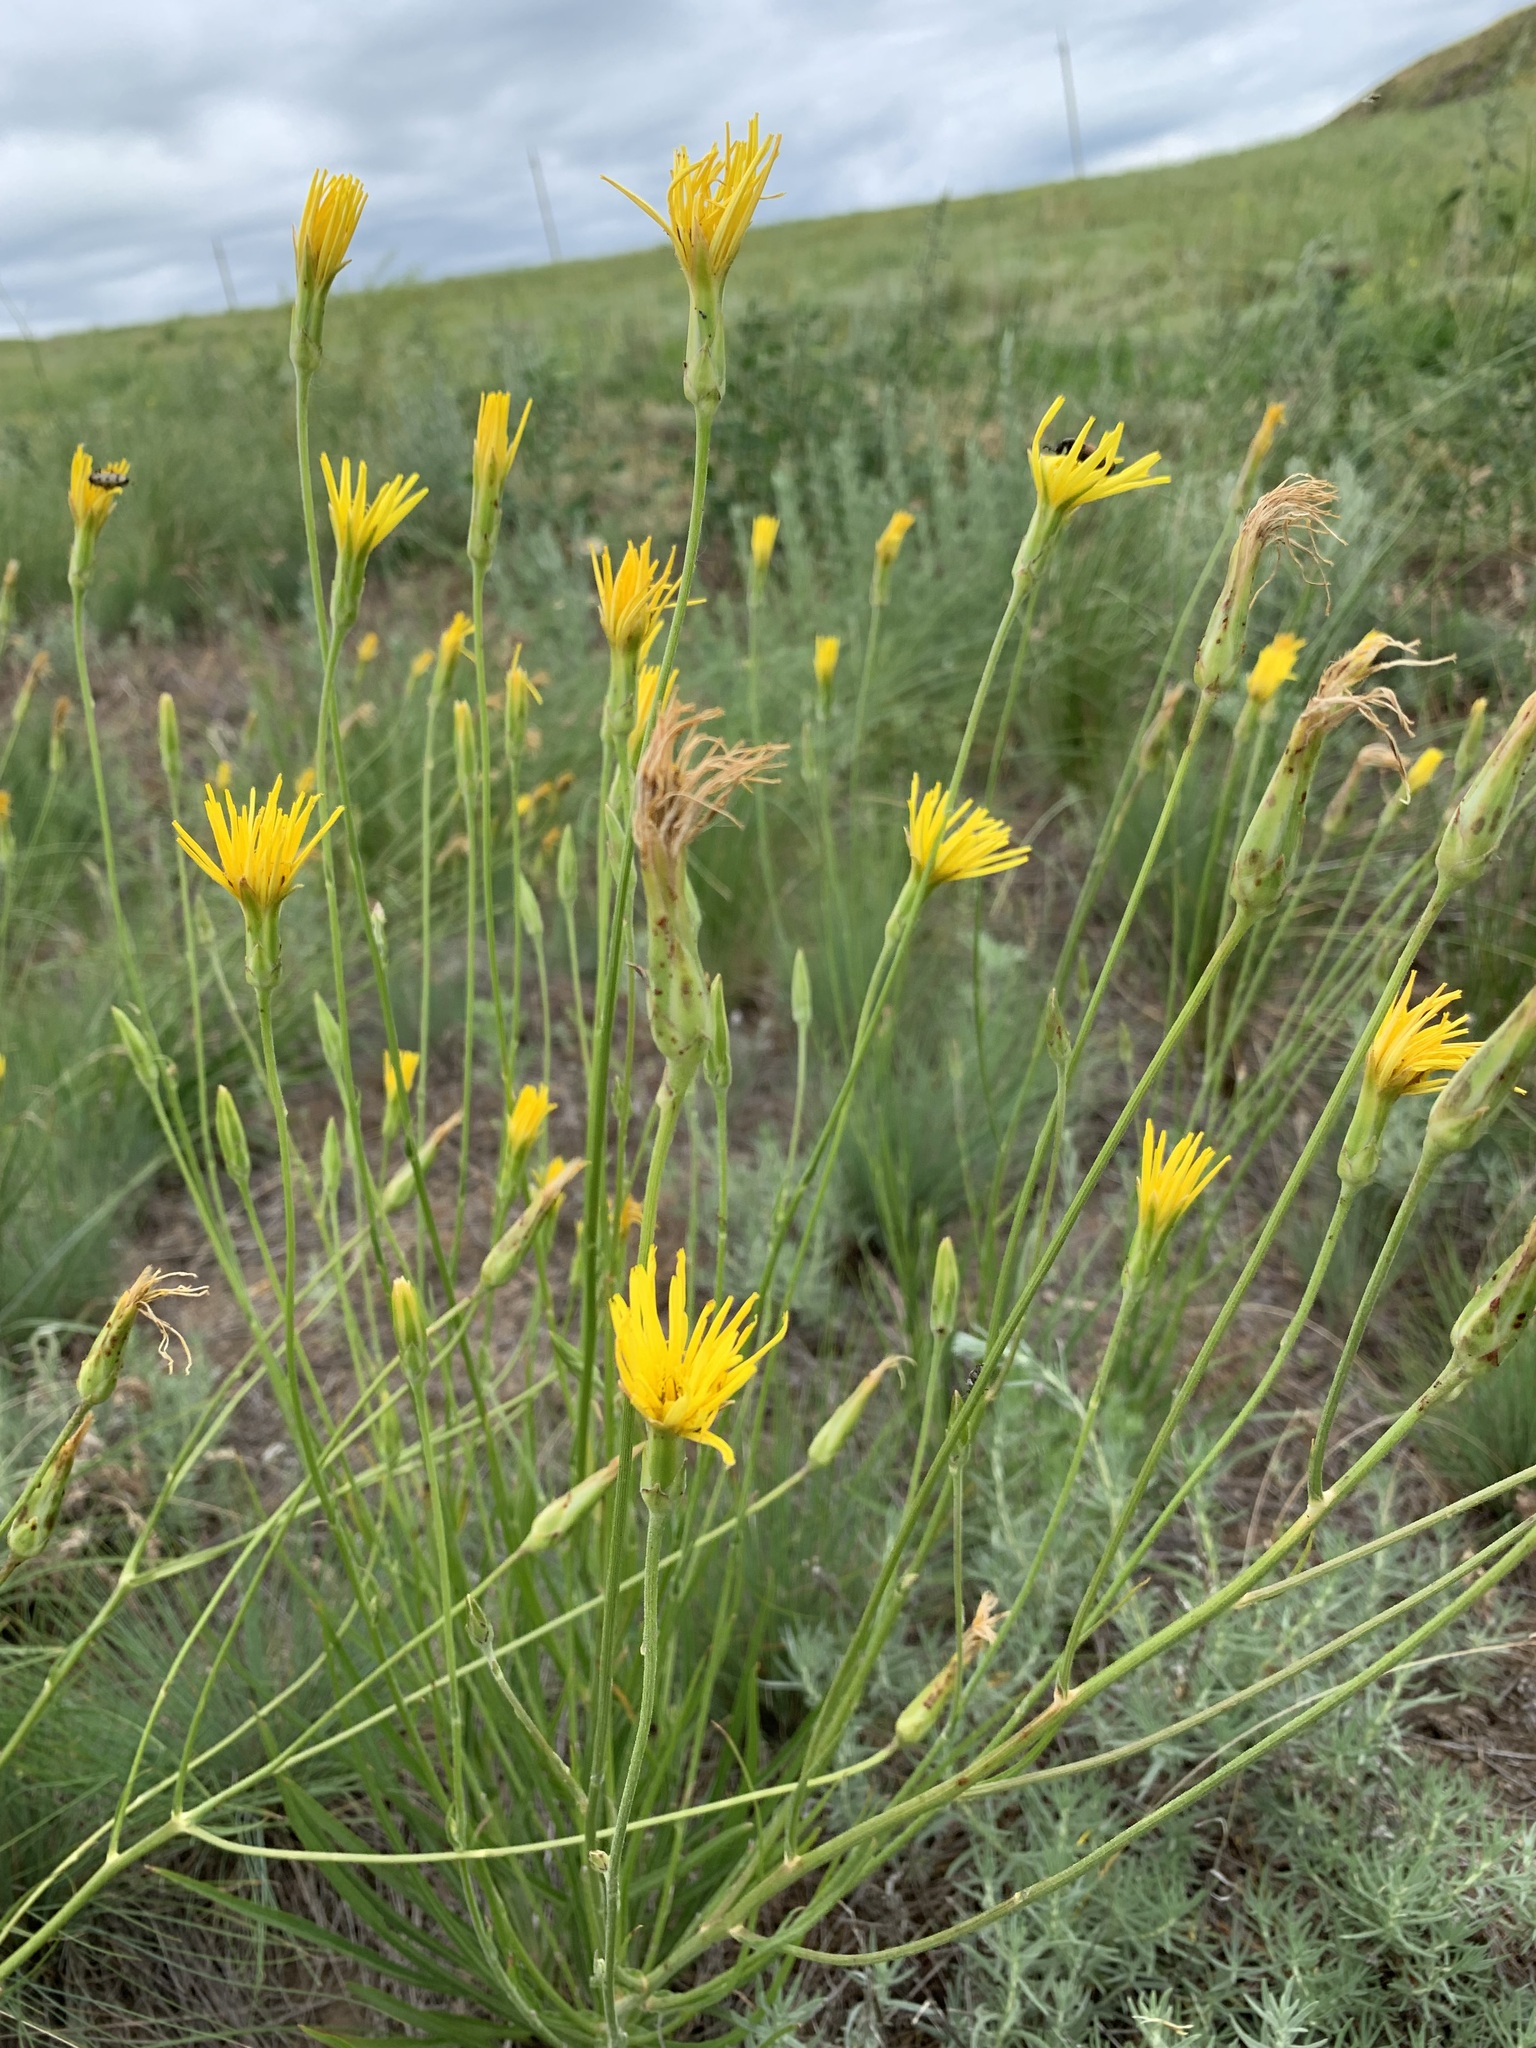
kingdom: Plantae
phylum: Tracheophyta
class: Magnoliopsida
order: Asterales
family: Asteraceae
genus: Pseudopodospermum
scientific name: Pseudopodospermum strictum
